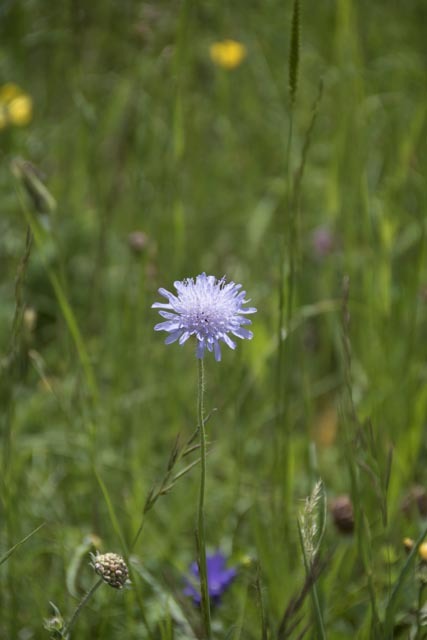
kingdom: Plantae
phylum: Tracheophyta
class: Magnoliopsida
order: Dipsacales
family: Caprifoliaceae
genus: Knautia
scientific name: Knautia arvensis
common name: Field scabiosa
